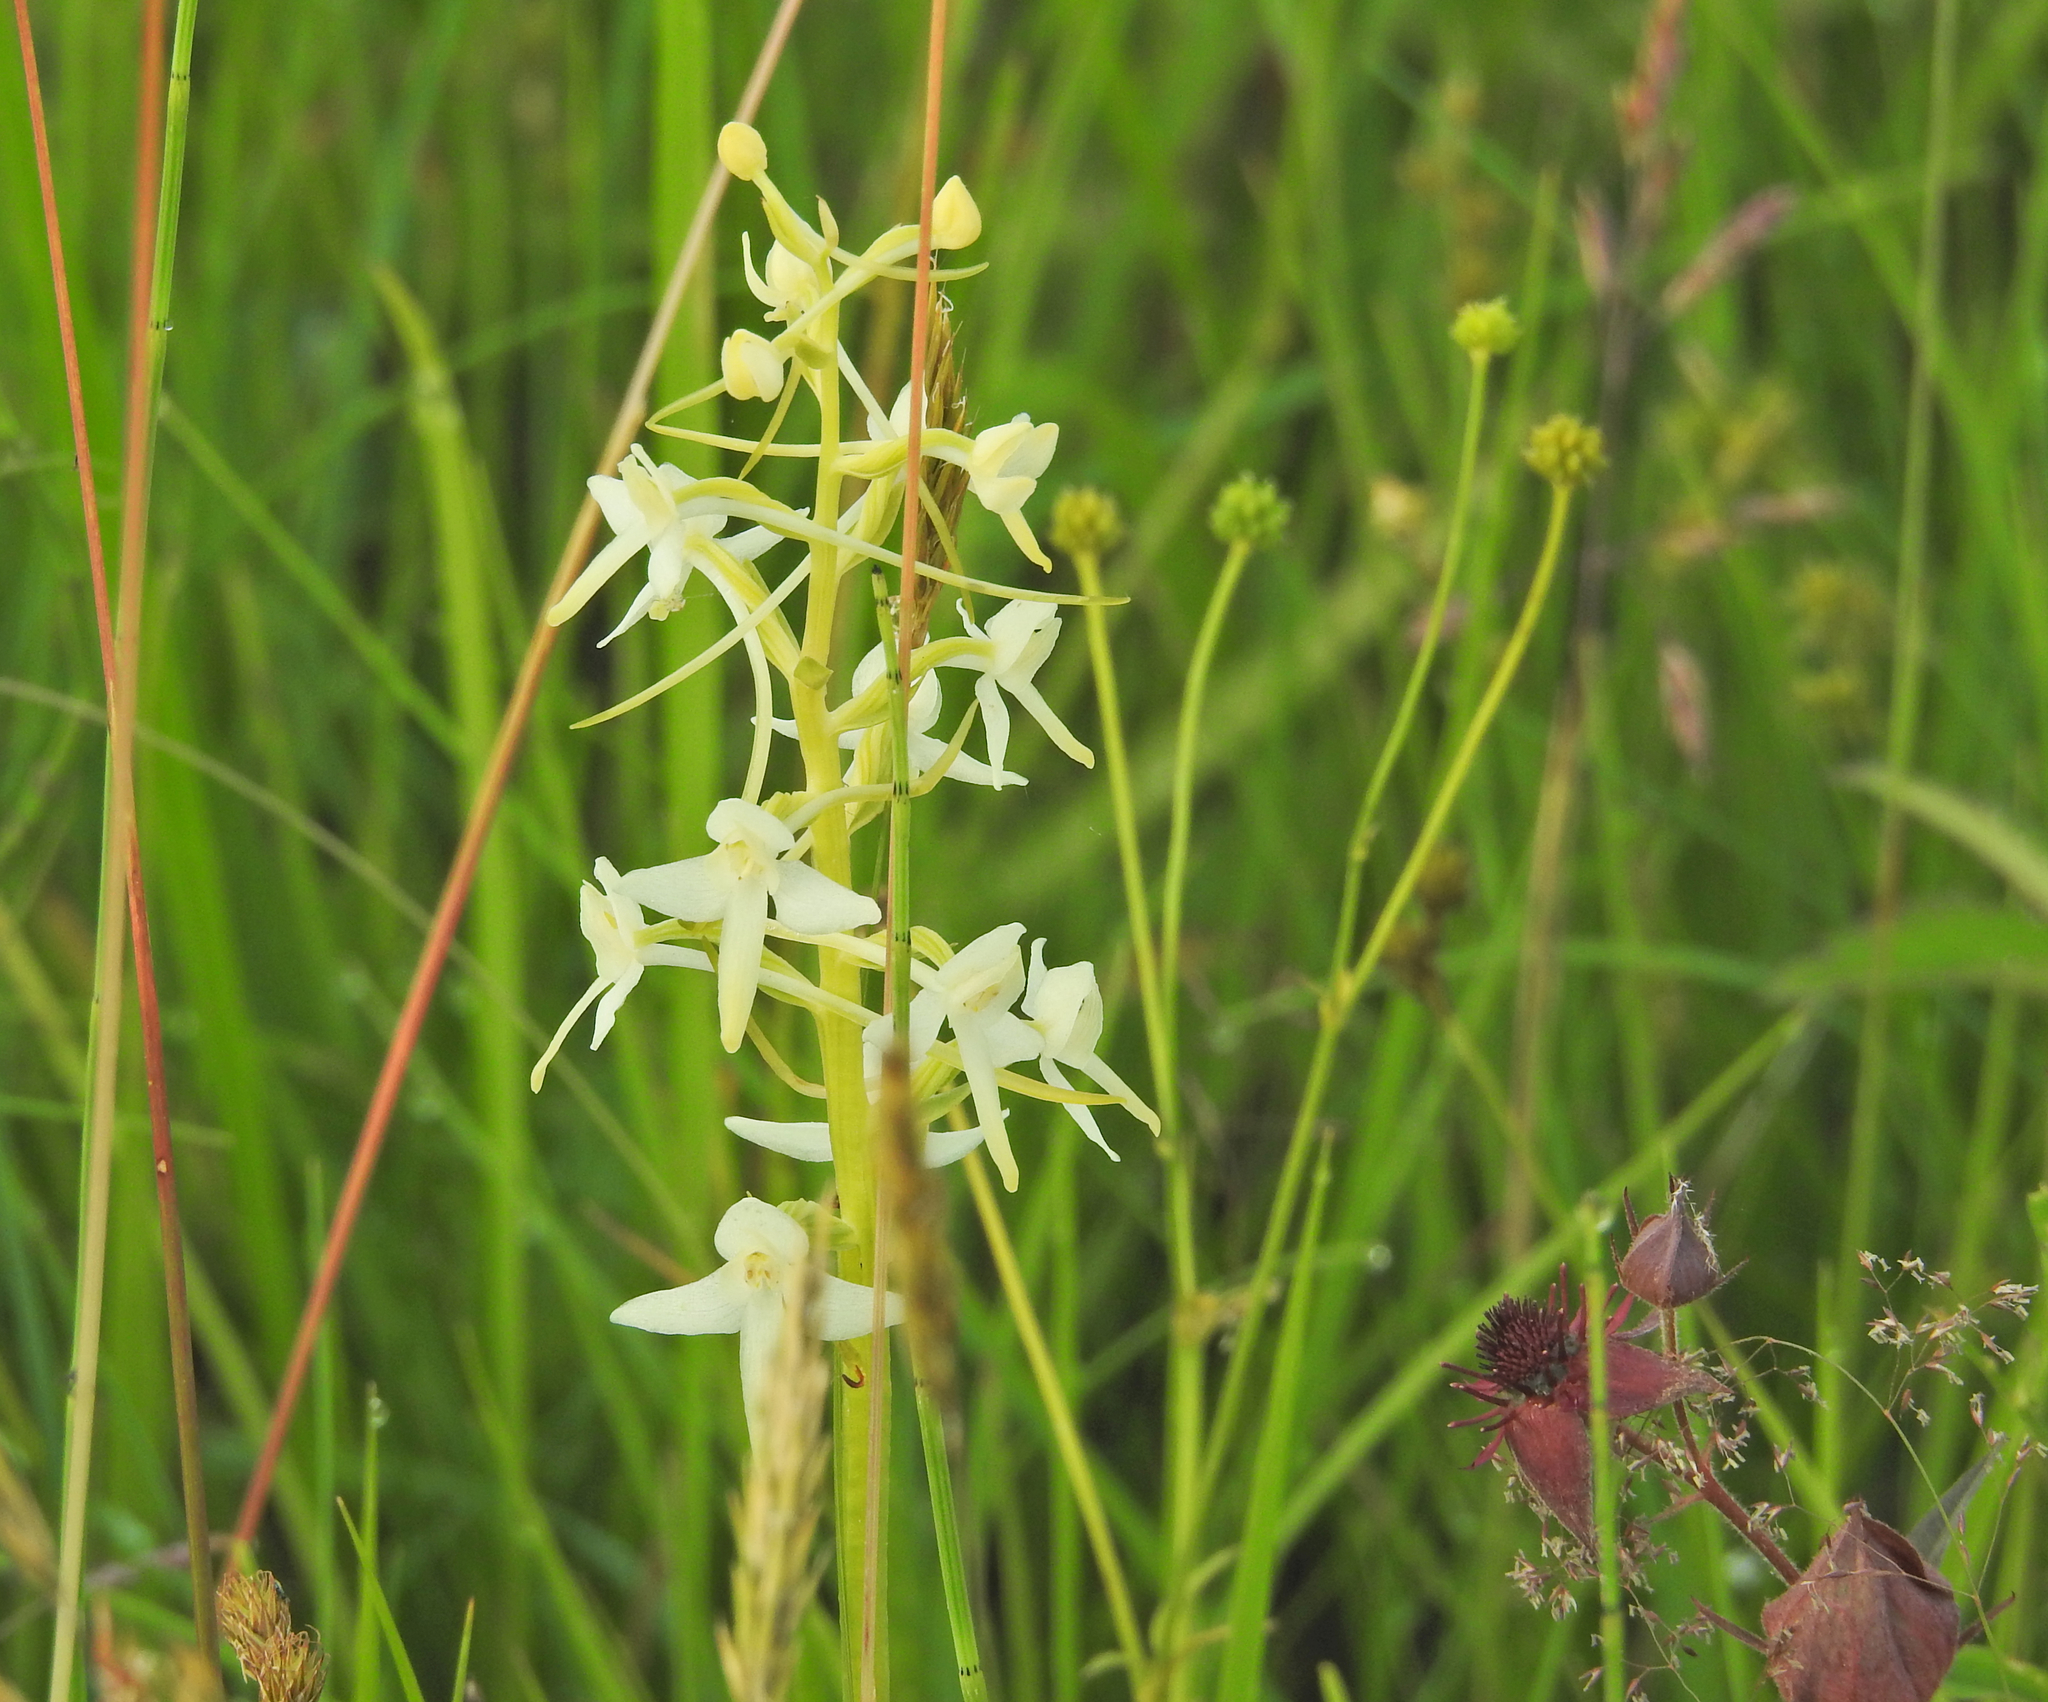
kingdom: Plantae
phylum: Tracheophyta
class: Liliopsida
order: Asparagales
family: Orchidaceae
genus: Platanthera
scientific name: Platanthera bifolia
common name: Lesser butterfly-orchid
